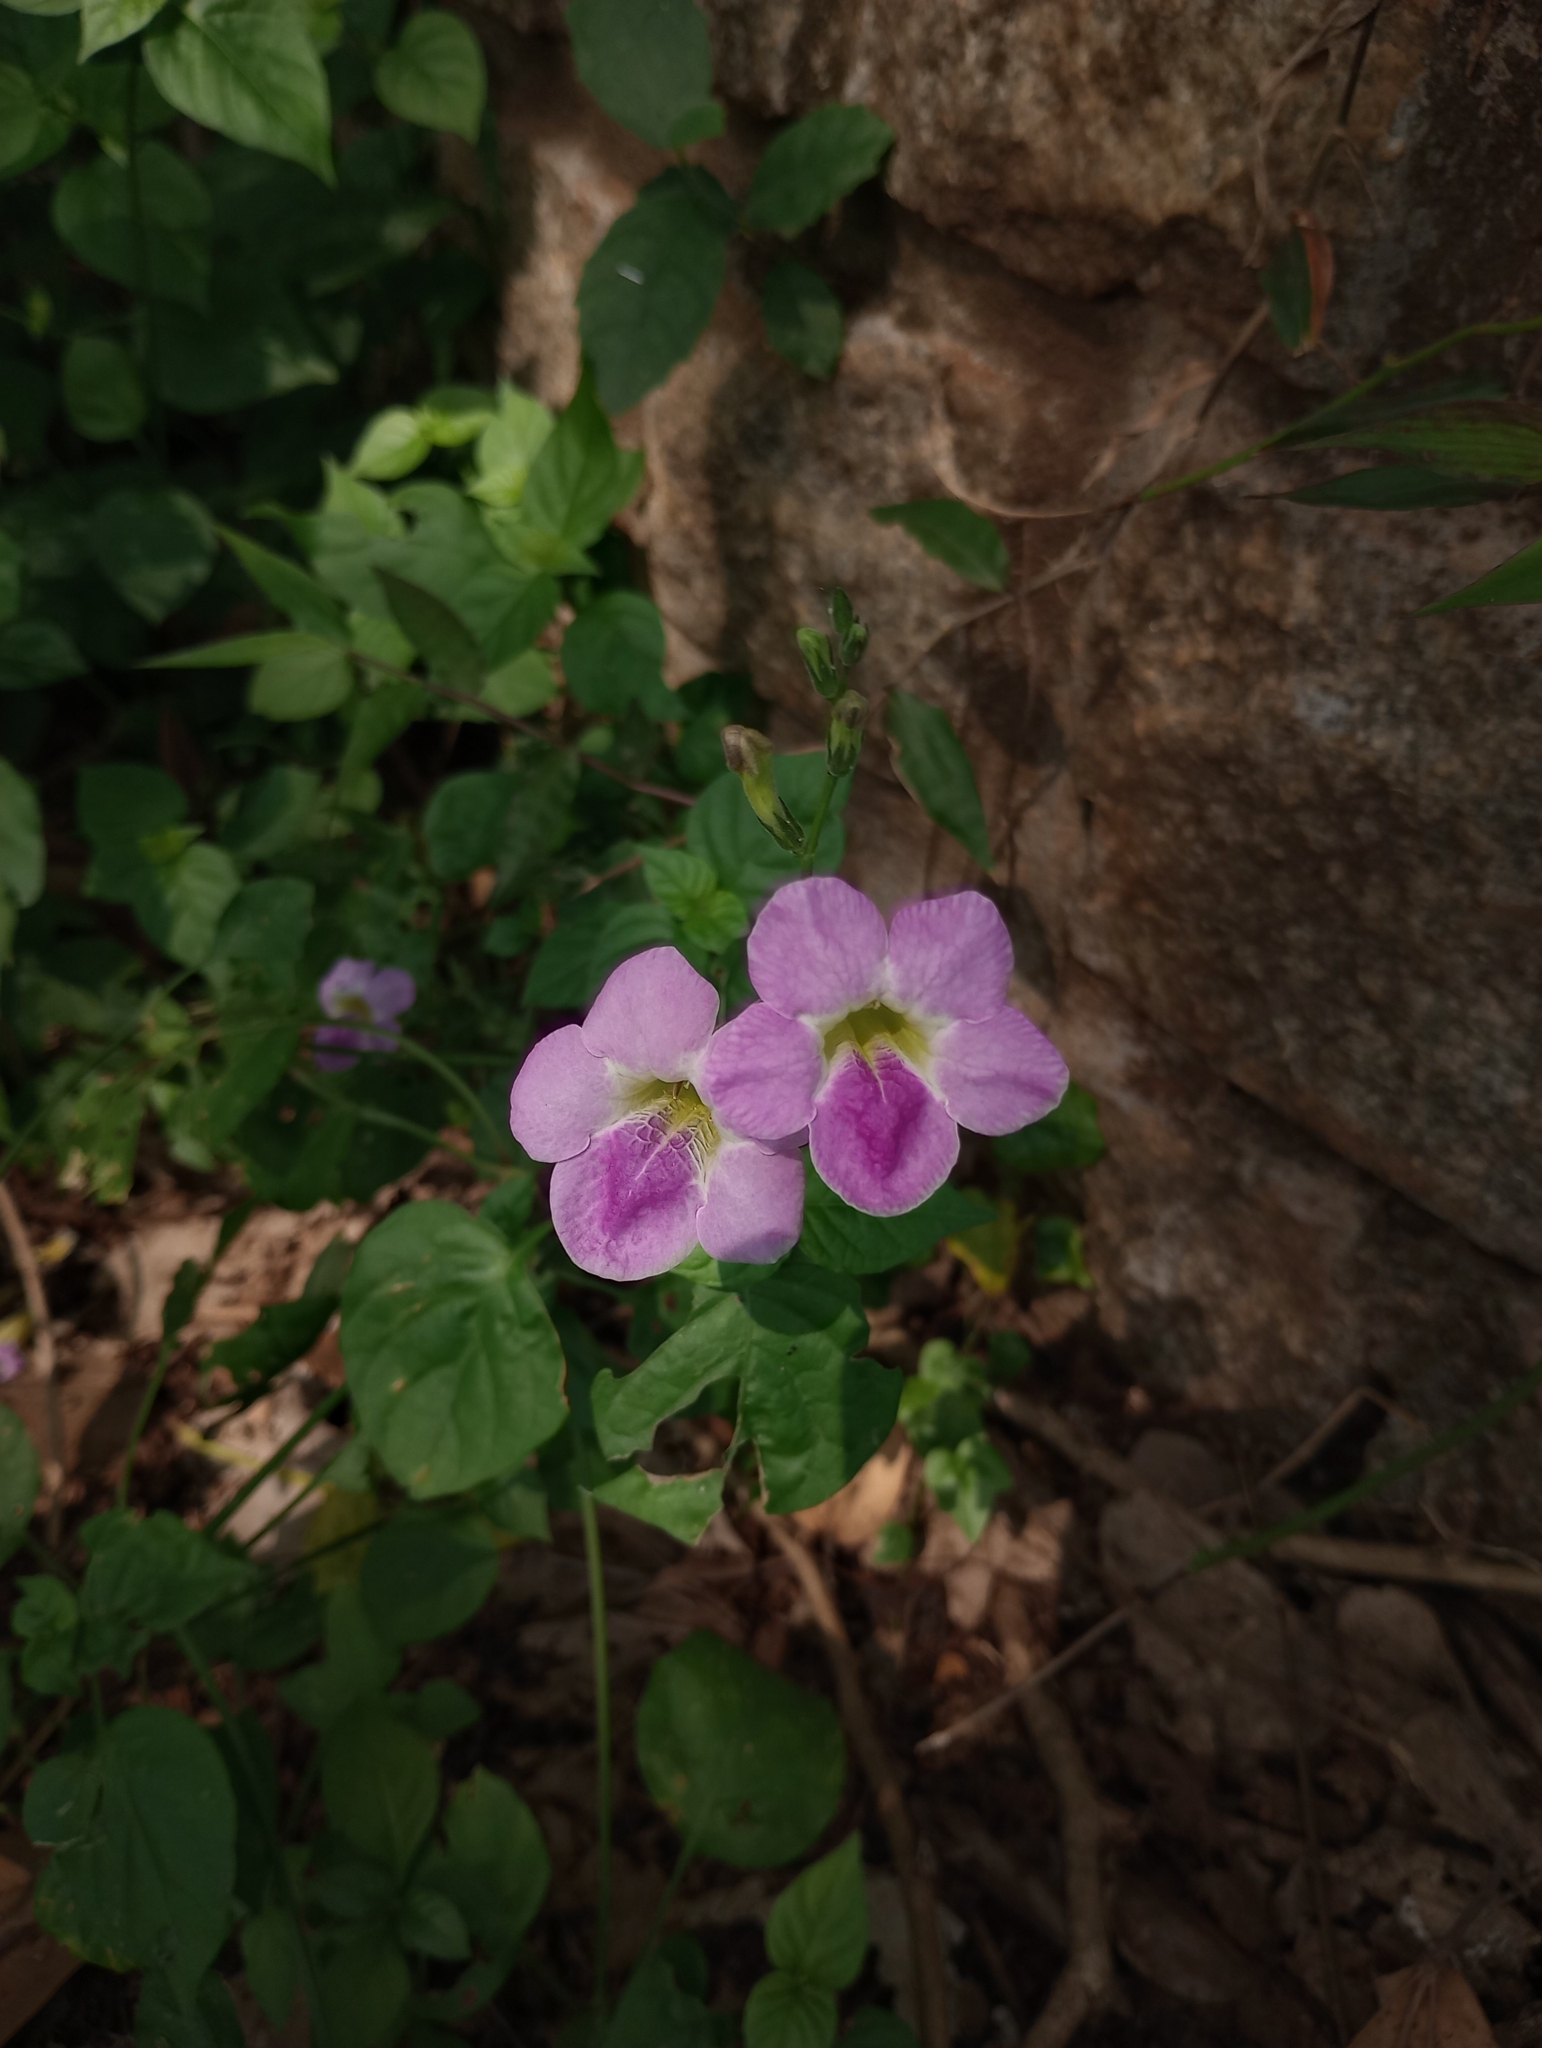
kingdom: Plantae
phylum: Tracheophyta
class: Magnoliopsida
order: Lamiales
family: Acanthaceae
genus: Asystasia
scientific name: Asystasia gangetica
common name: Chinese violet
